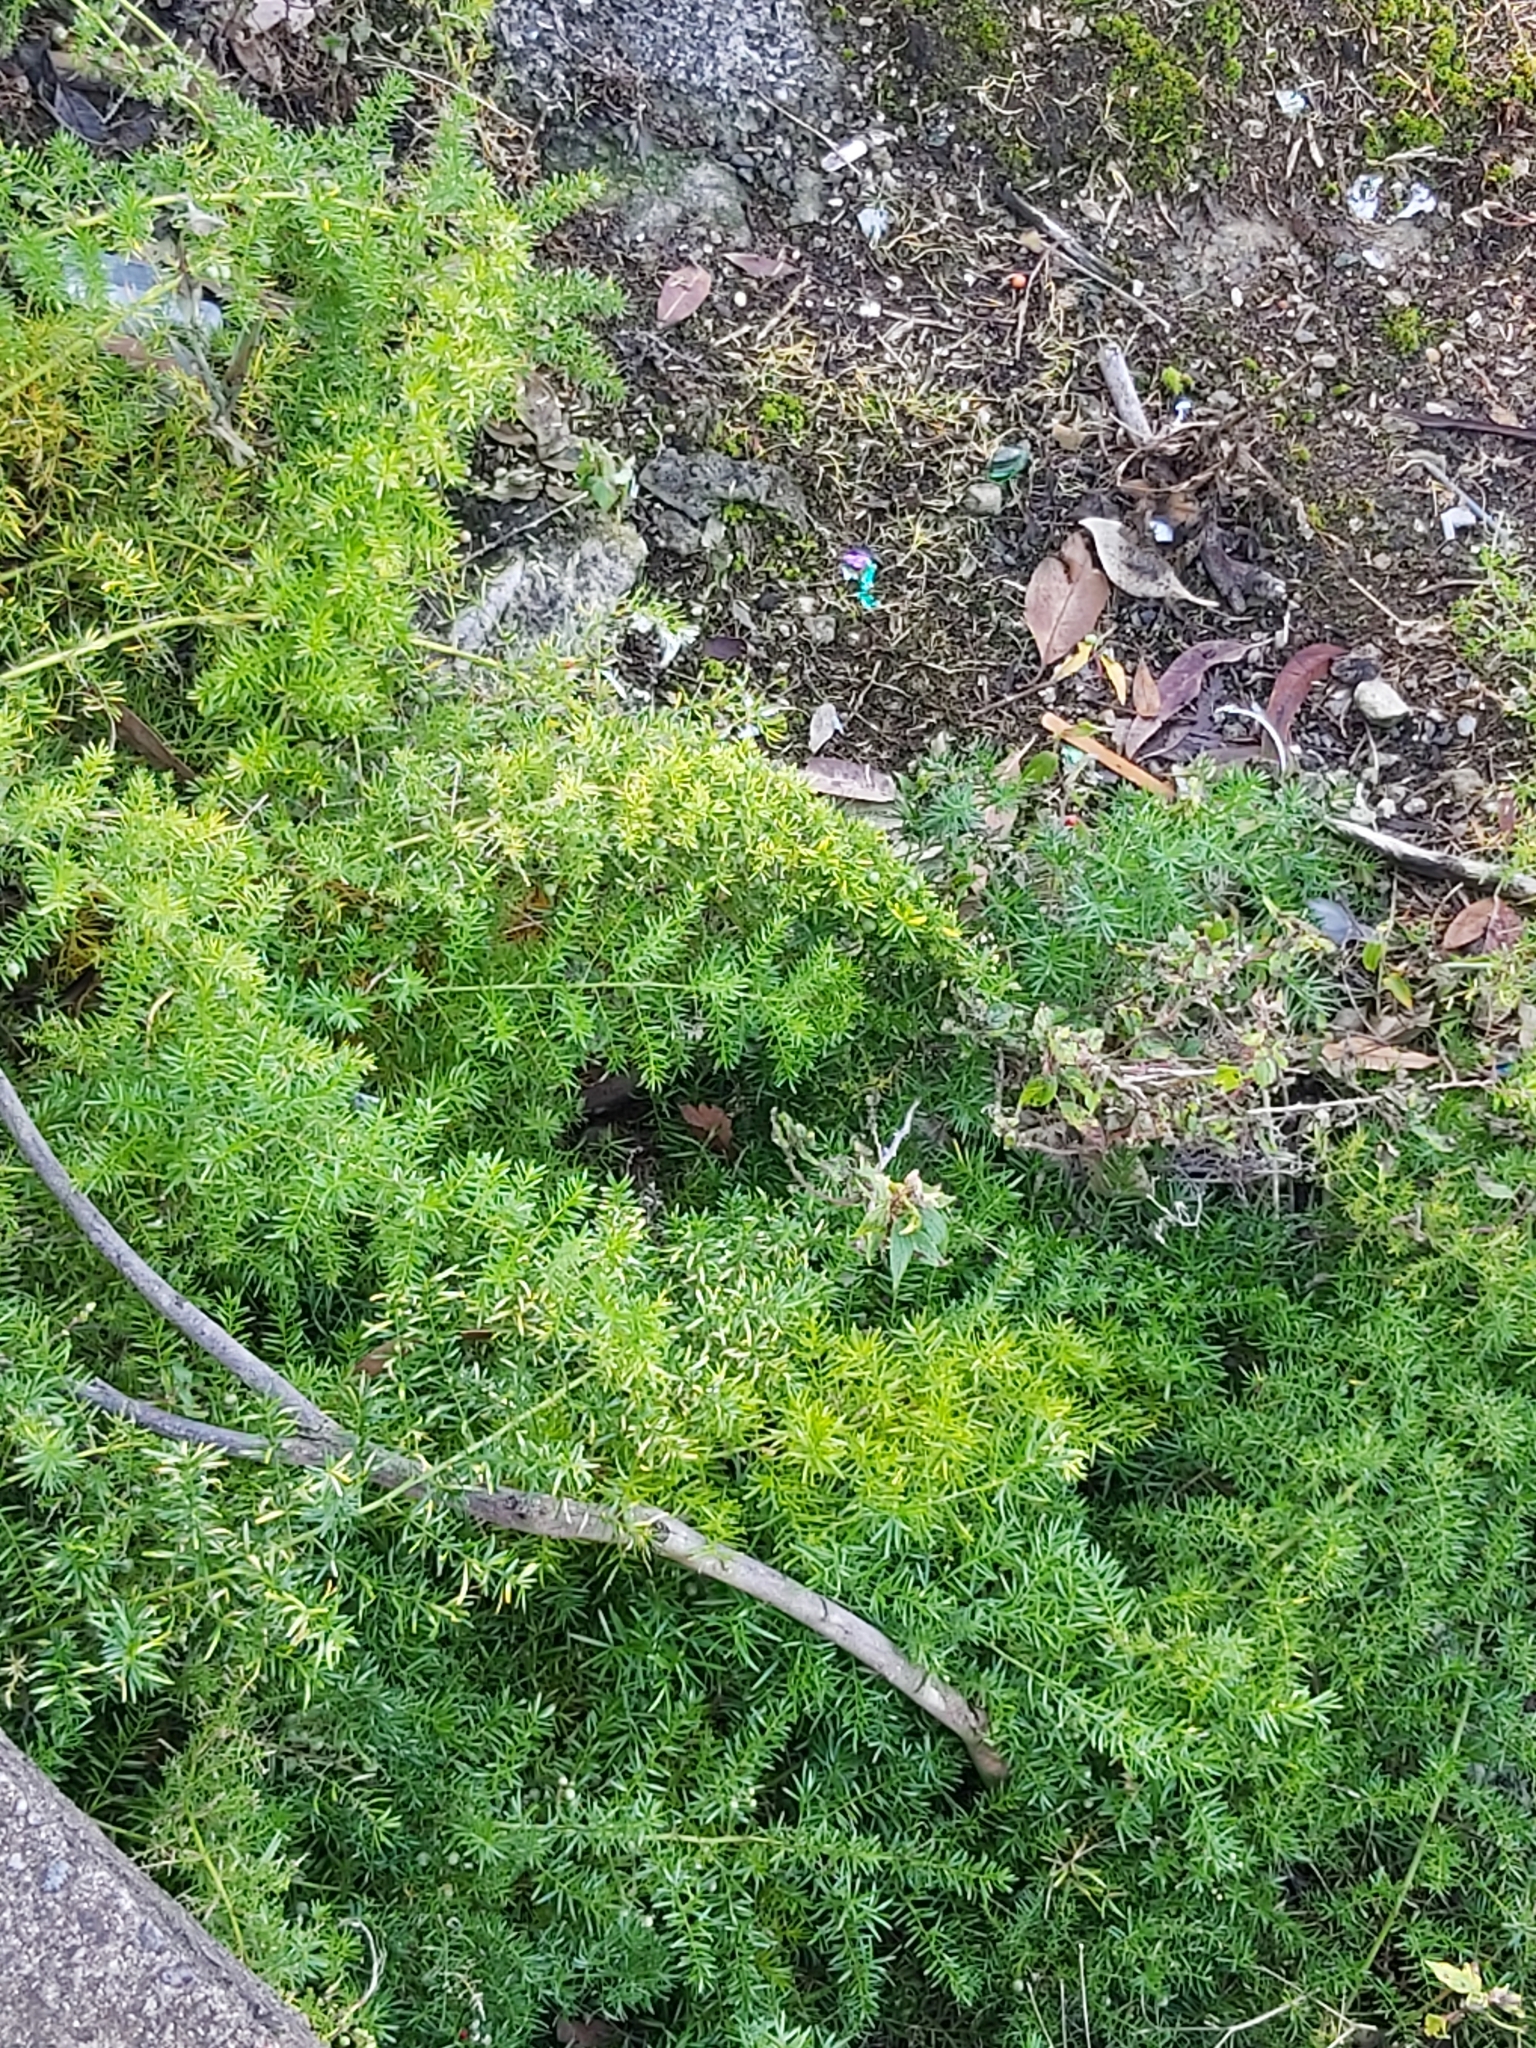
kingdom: Plantae
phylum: Tracheophyta
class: Liliopsida
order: Asparagales
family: Asparagaceae
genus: Asparagus
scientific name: Asparagus aethiopicus
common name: Sprenger's asparagus fern
